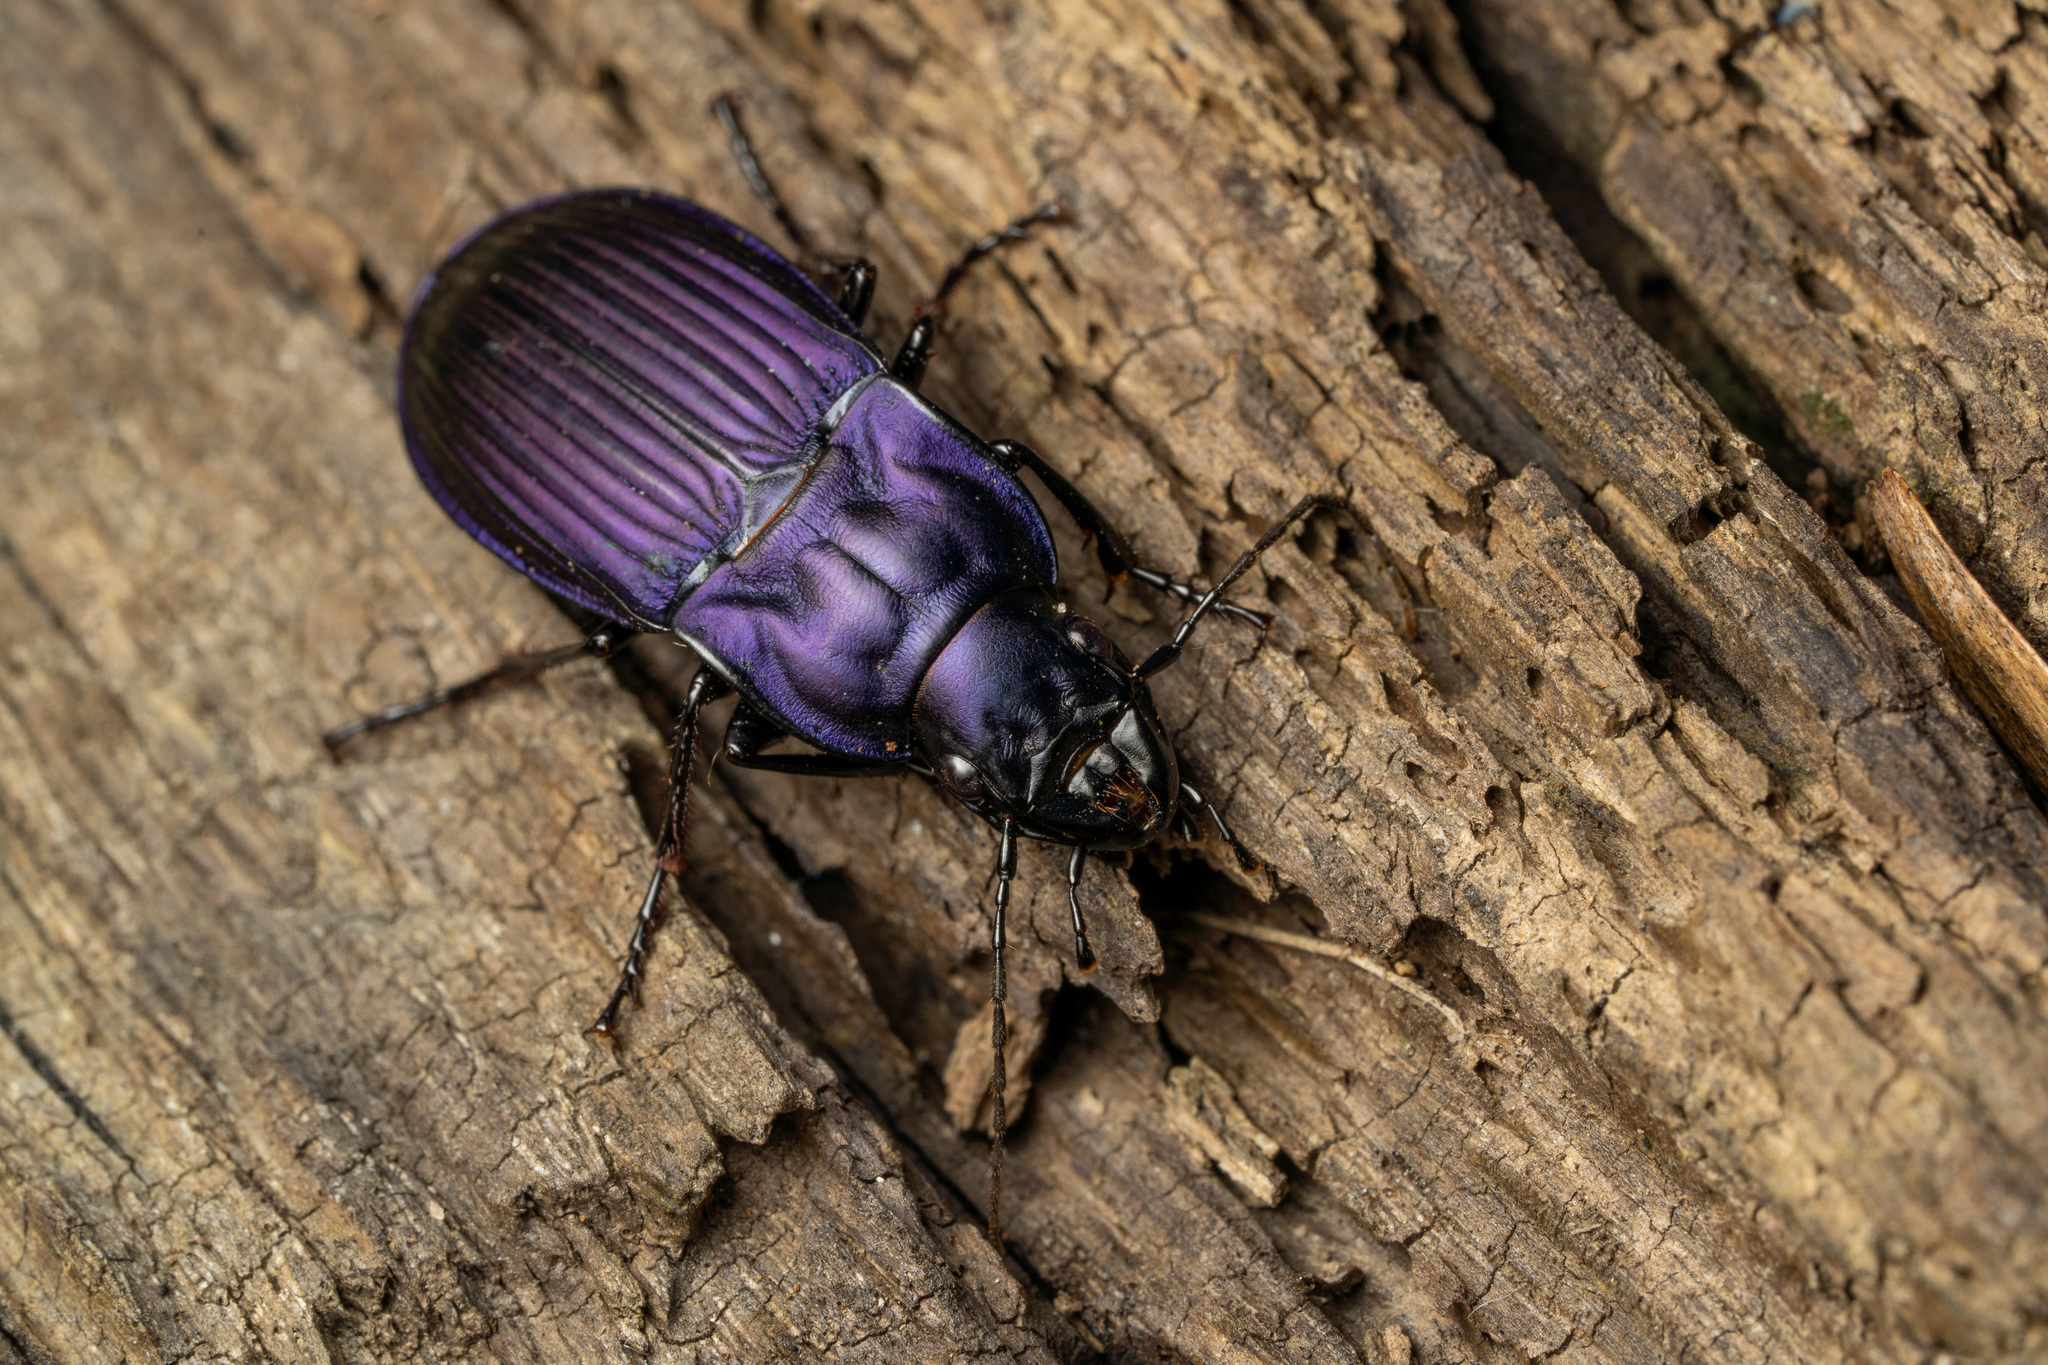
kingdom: Animalia
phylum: Arthropoda
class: Insecta
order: Coleoptera
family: Carabidae
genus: Dicaelus
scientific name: Dicaelus purpuratus
